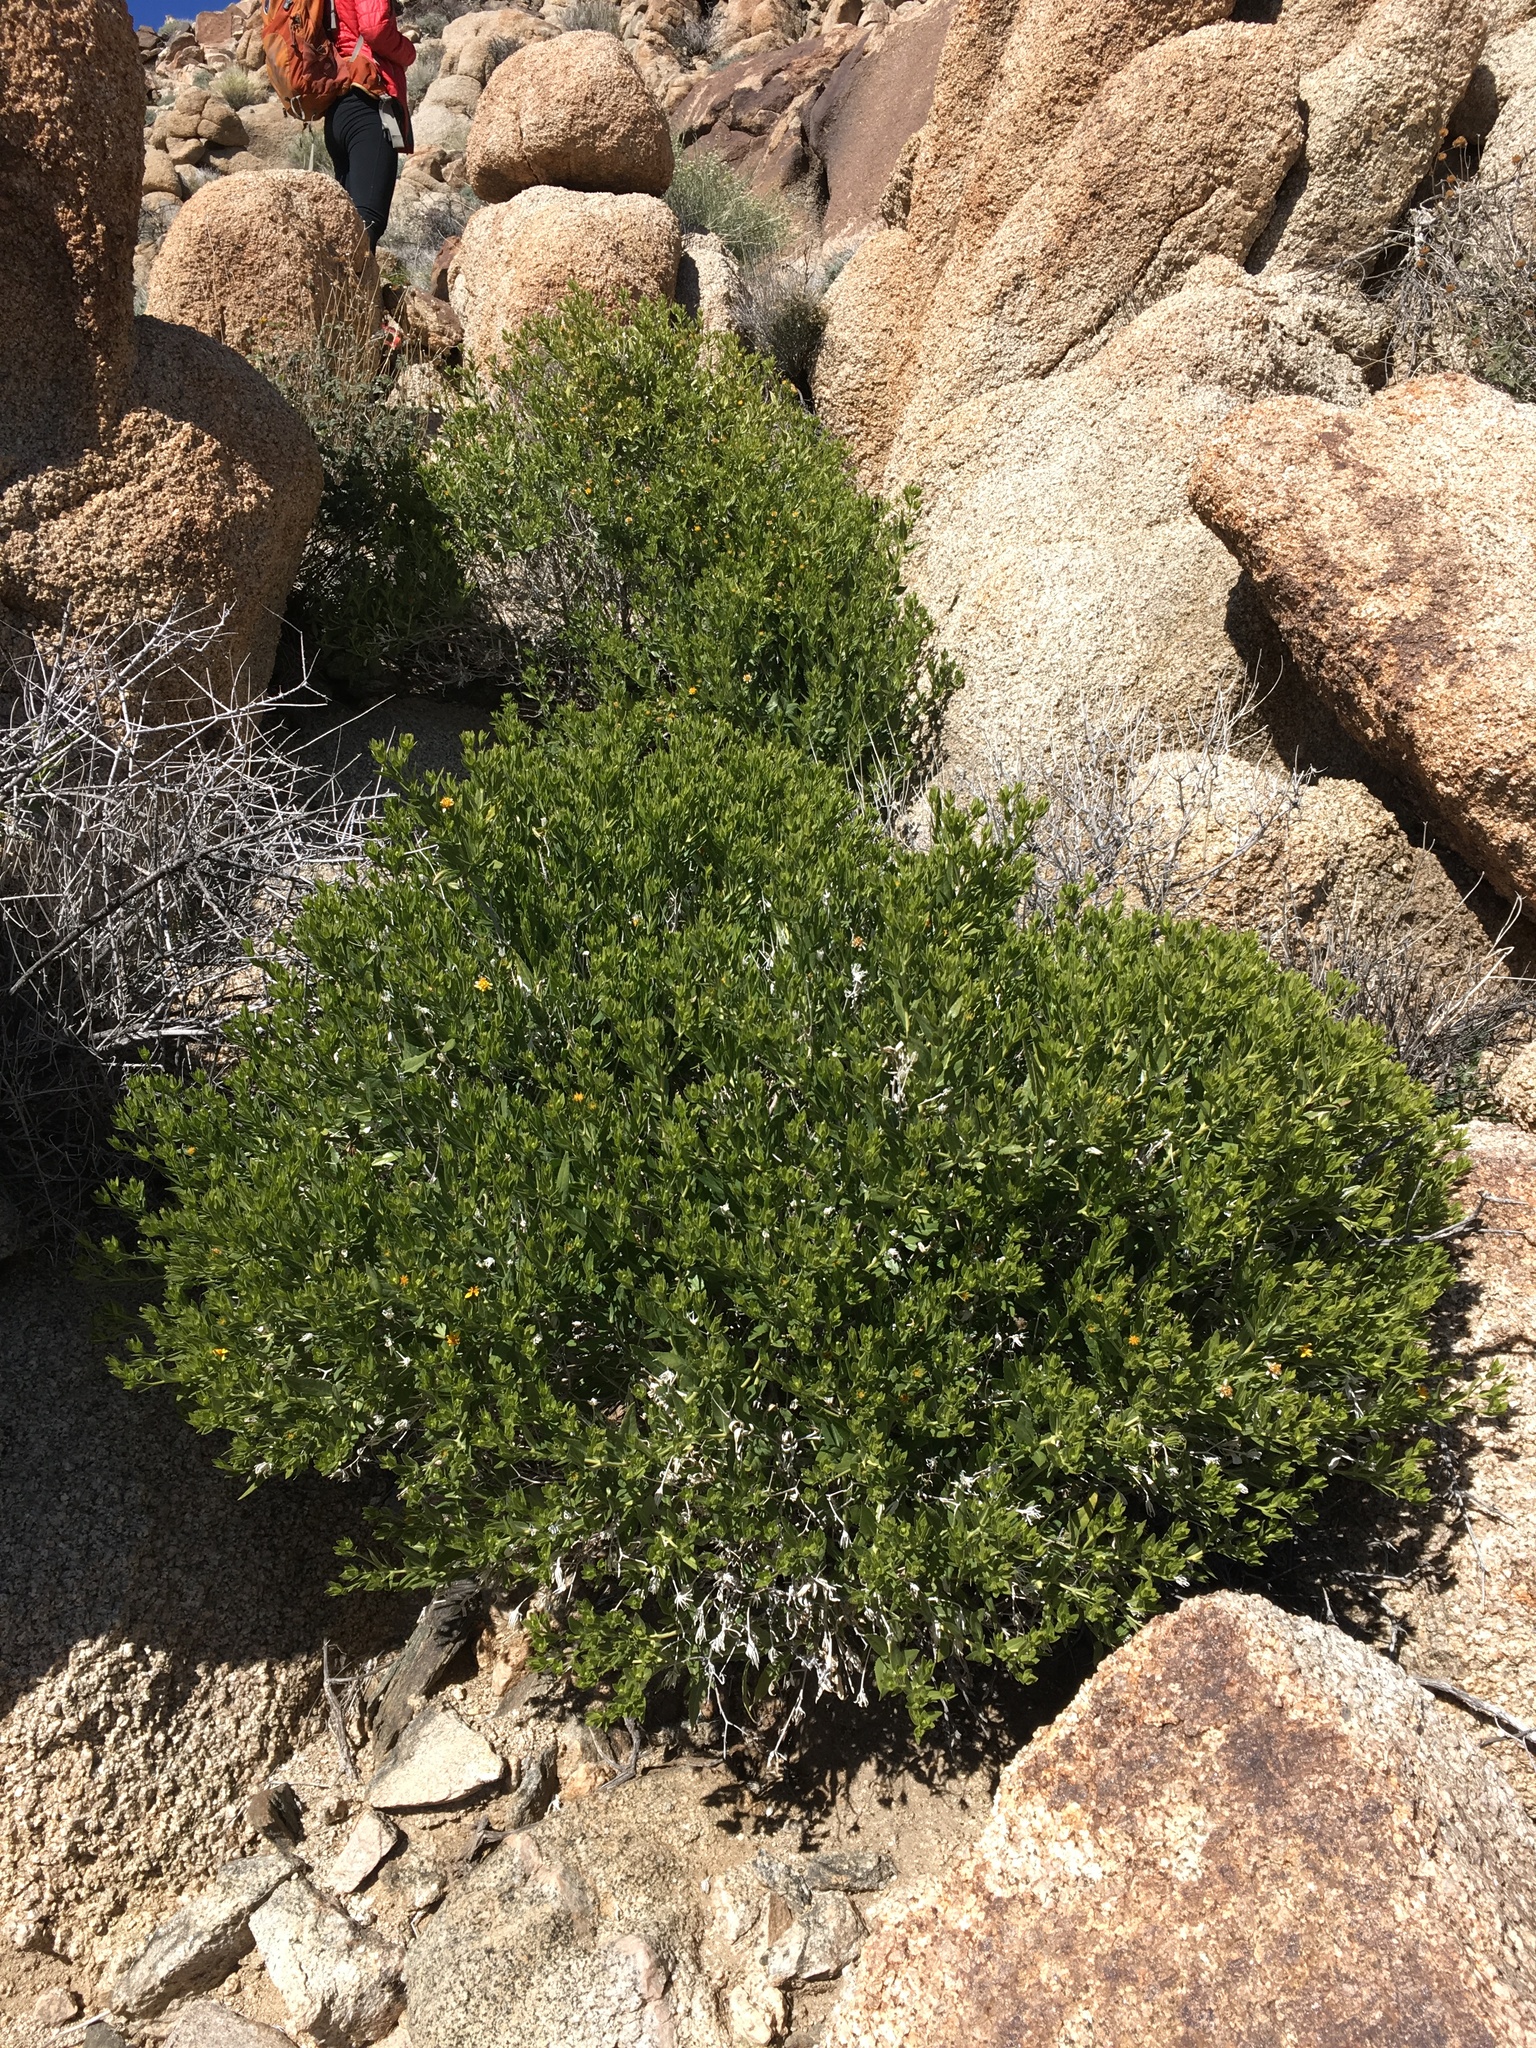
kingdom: Plantae
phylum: Tracheophyta
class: Magnoliopsida
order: Asterales
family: Asteraceae
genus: Trixis
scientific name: Trixis californica
